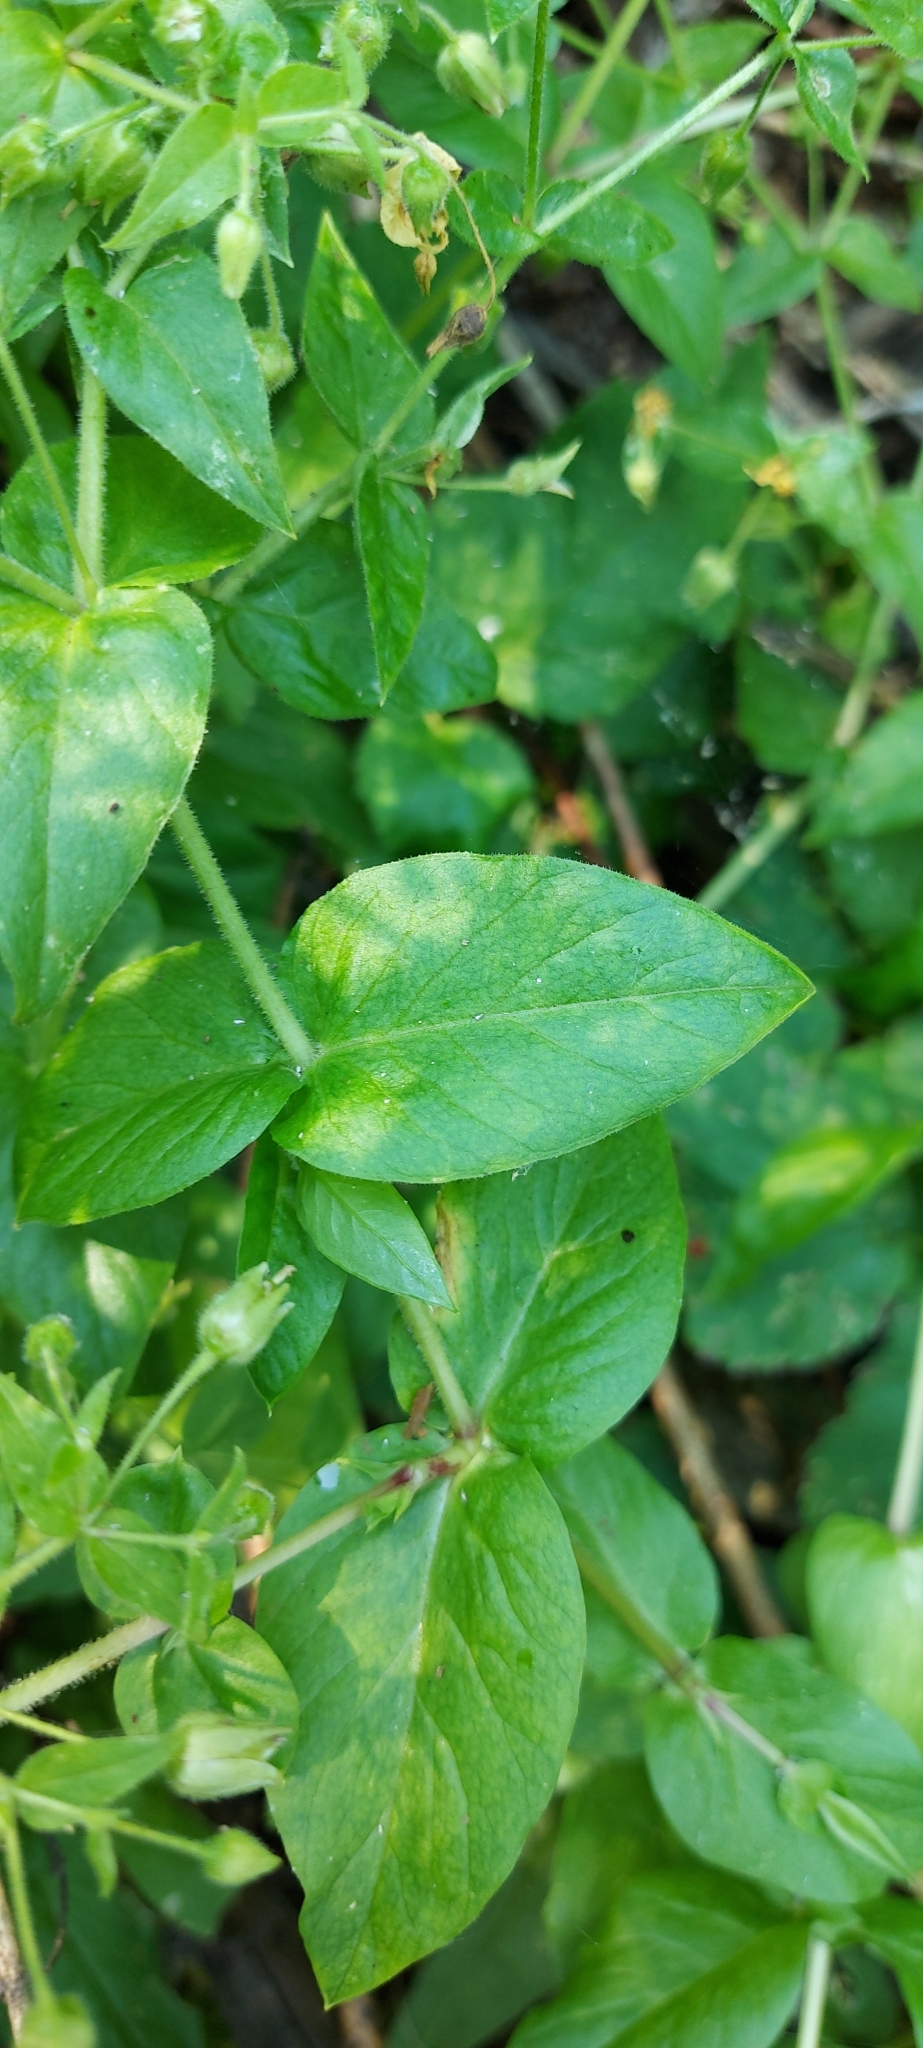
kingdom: Plantae
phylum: Tracheophyta
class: Magnoliopsida
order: Caryophyllales
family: Caryophyllaceae
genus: Stellaria
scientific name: Stellaria aquatica
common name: Water chickweed
